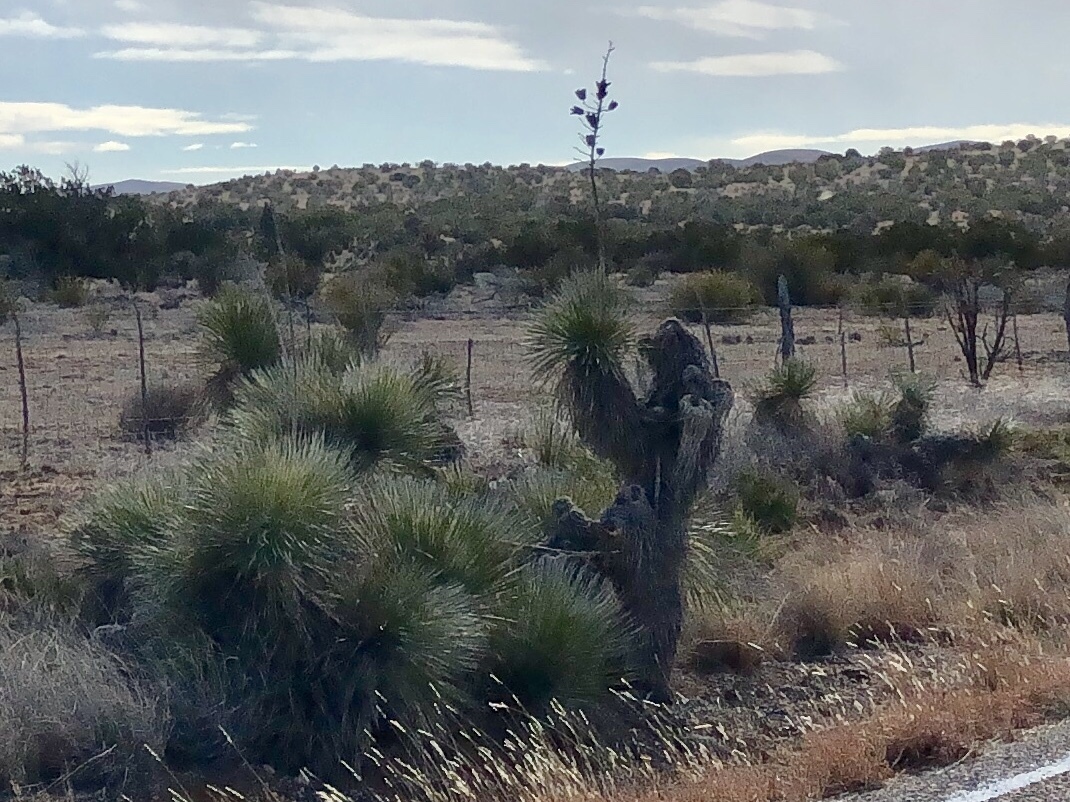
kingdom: Plantae
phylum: Tracheophyta
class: Liliopsida
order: Asparagales
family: Asparagaceae
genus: Yucca
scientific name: Yucca elata
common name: Palmella
